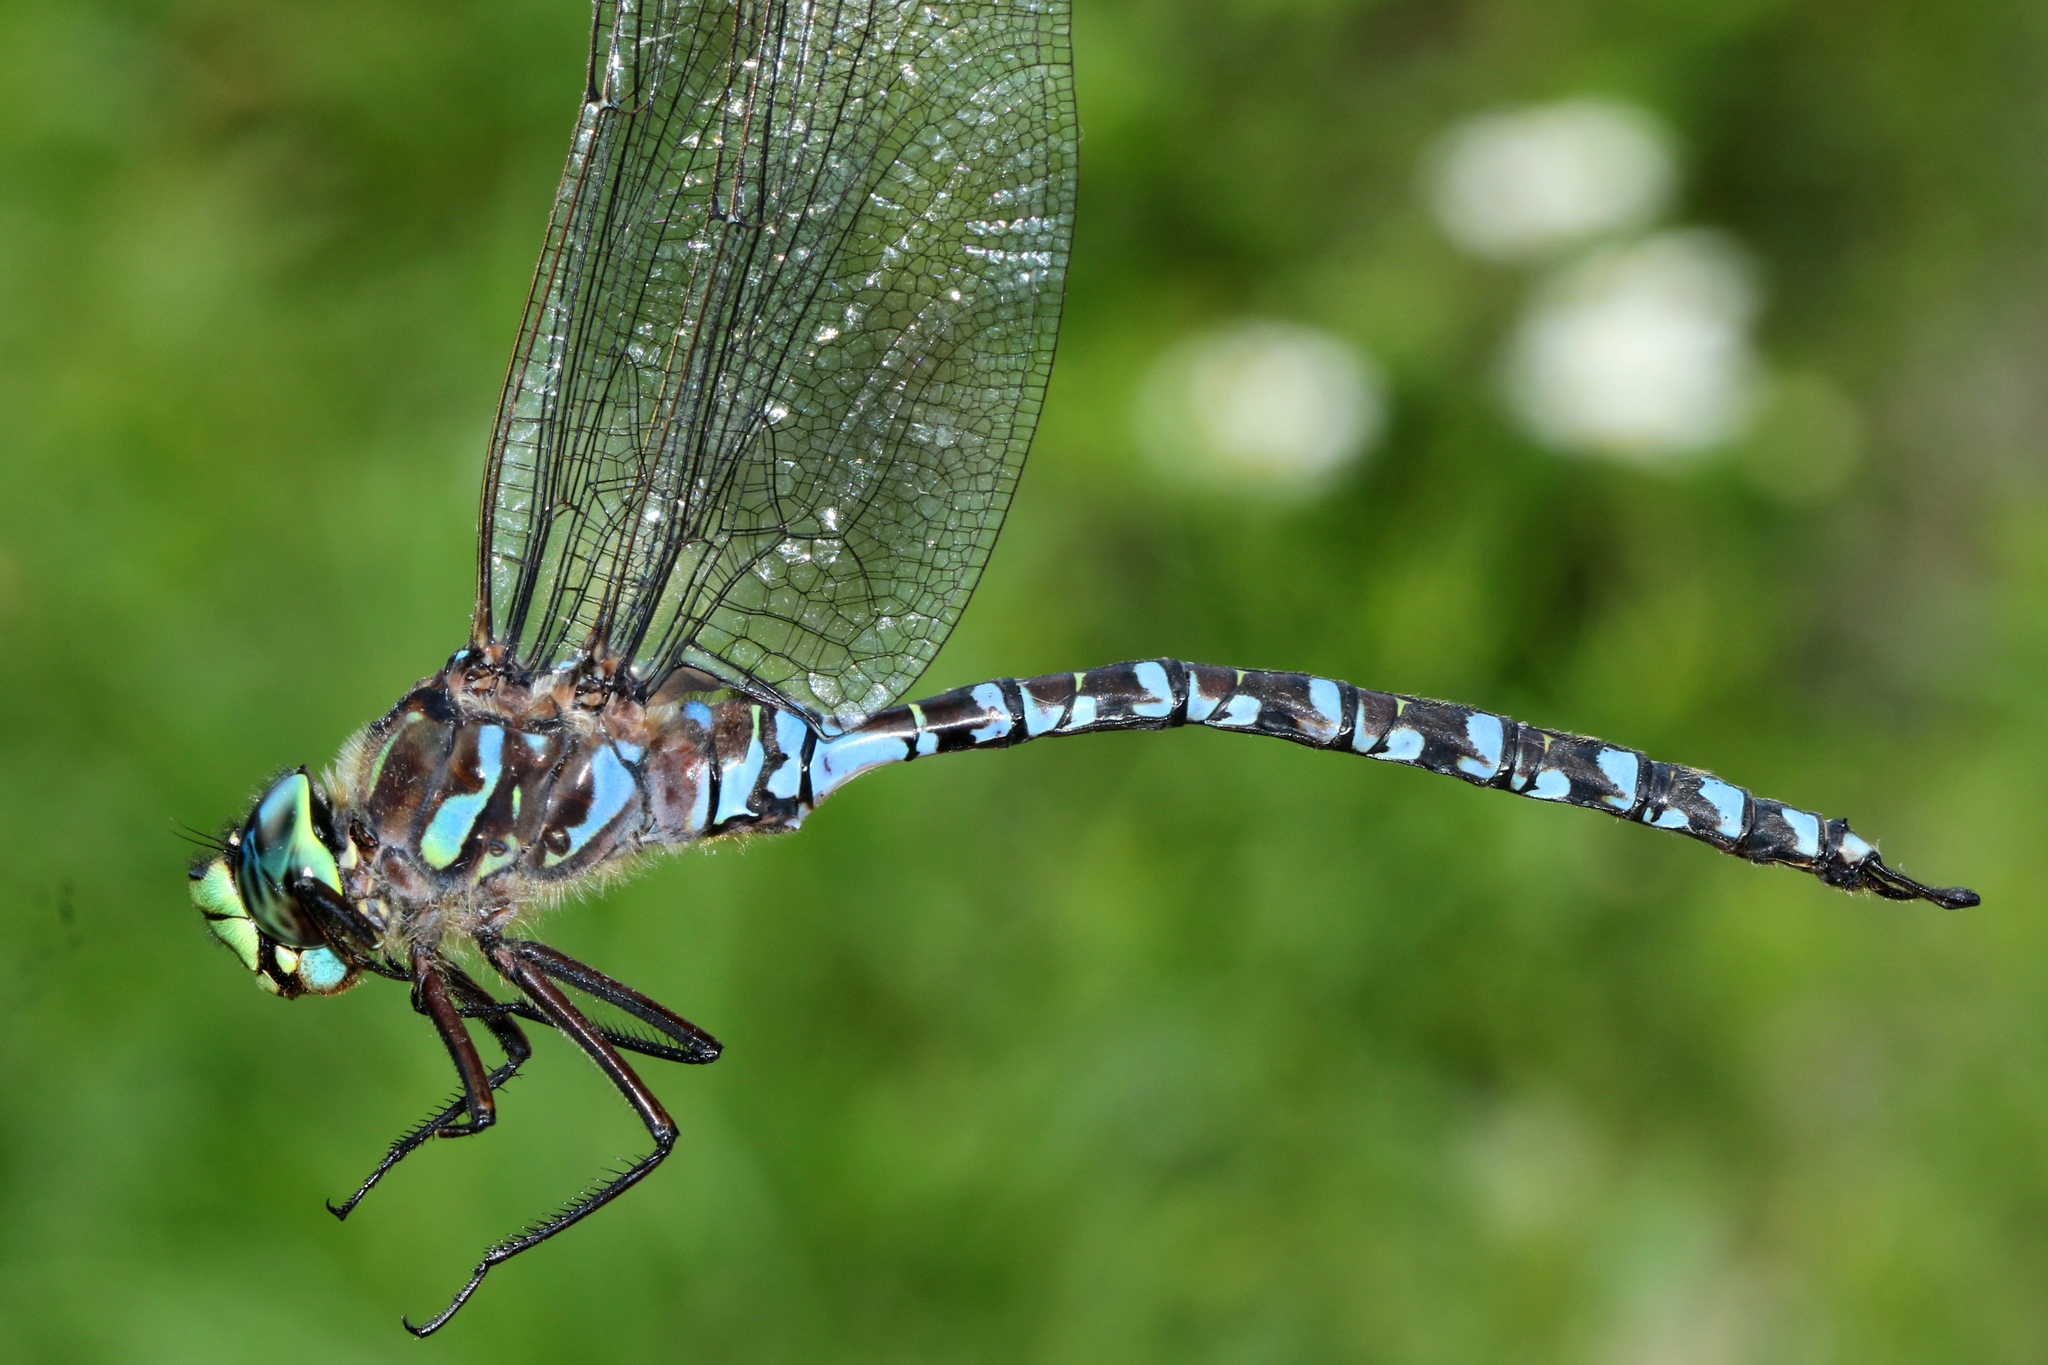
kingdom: Animalia
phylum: Arthropoda
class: Insecta
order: Odonata
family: Aeshnidae
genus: Aeshna
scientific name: Aeshna eremita
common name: Lake darner
